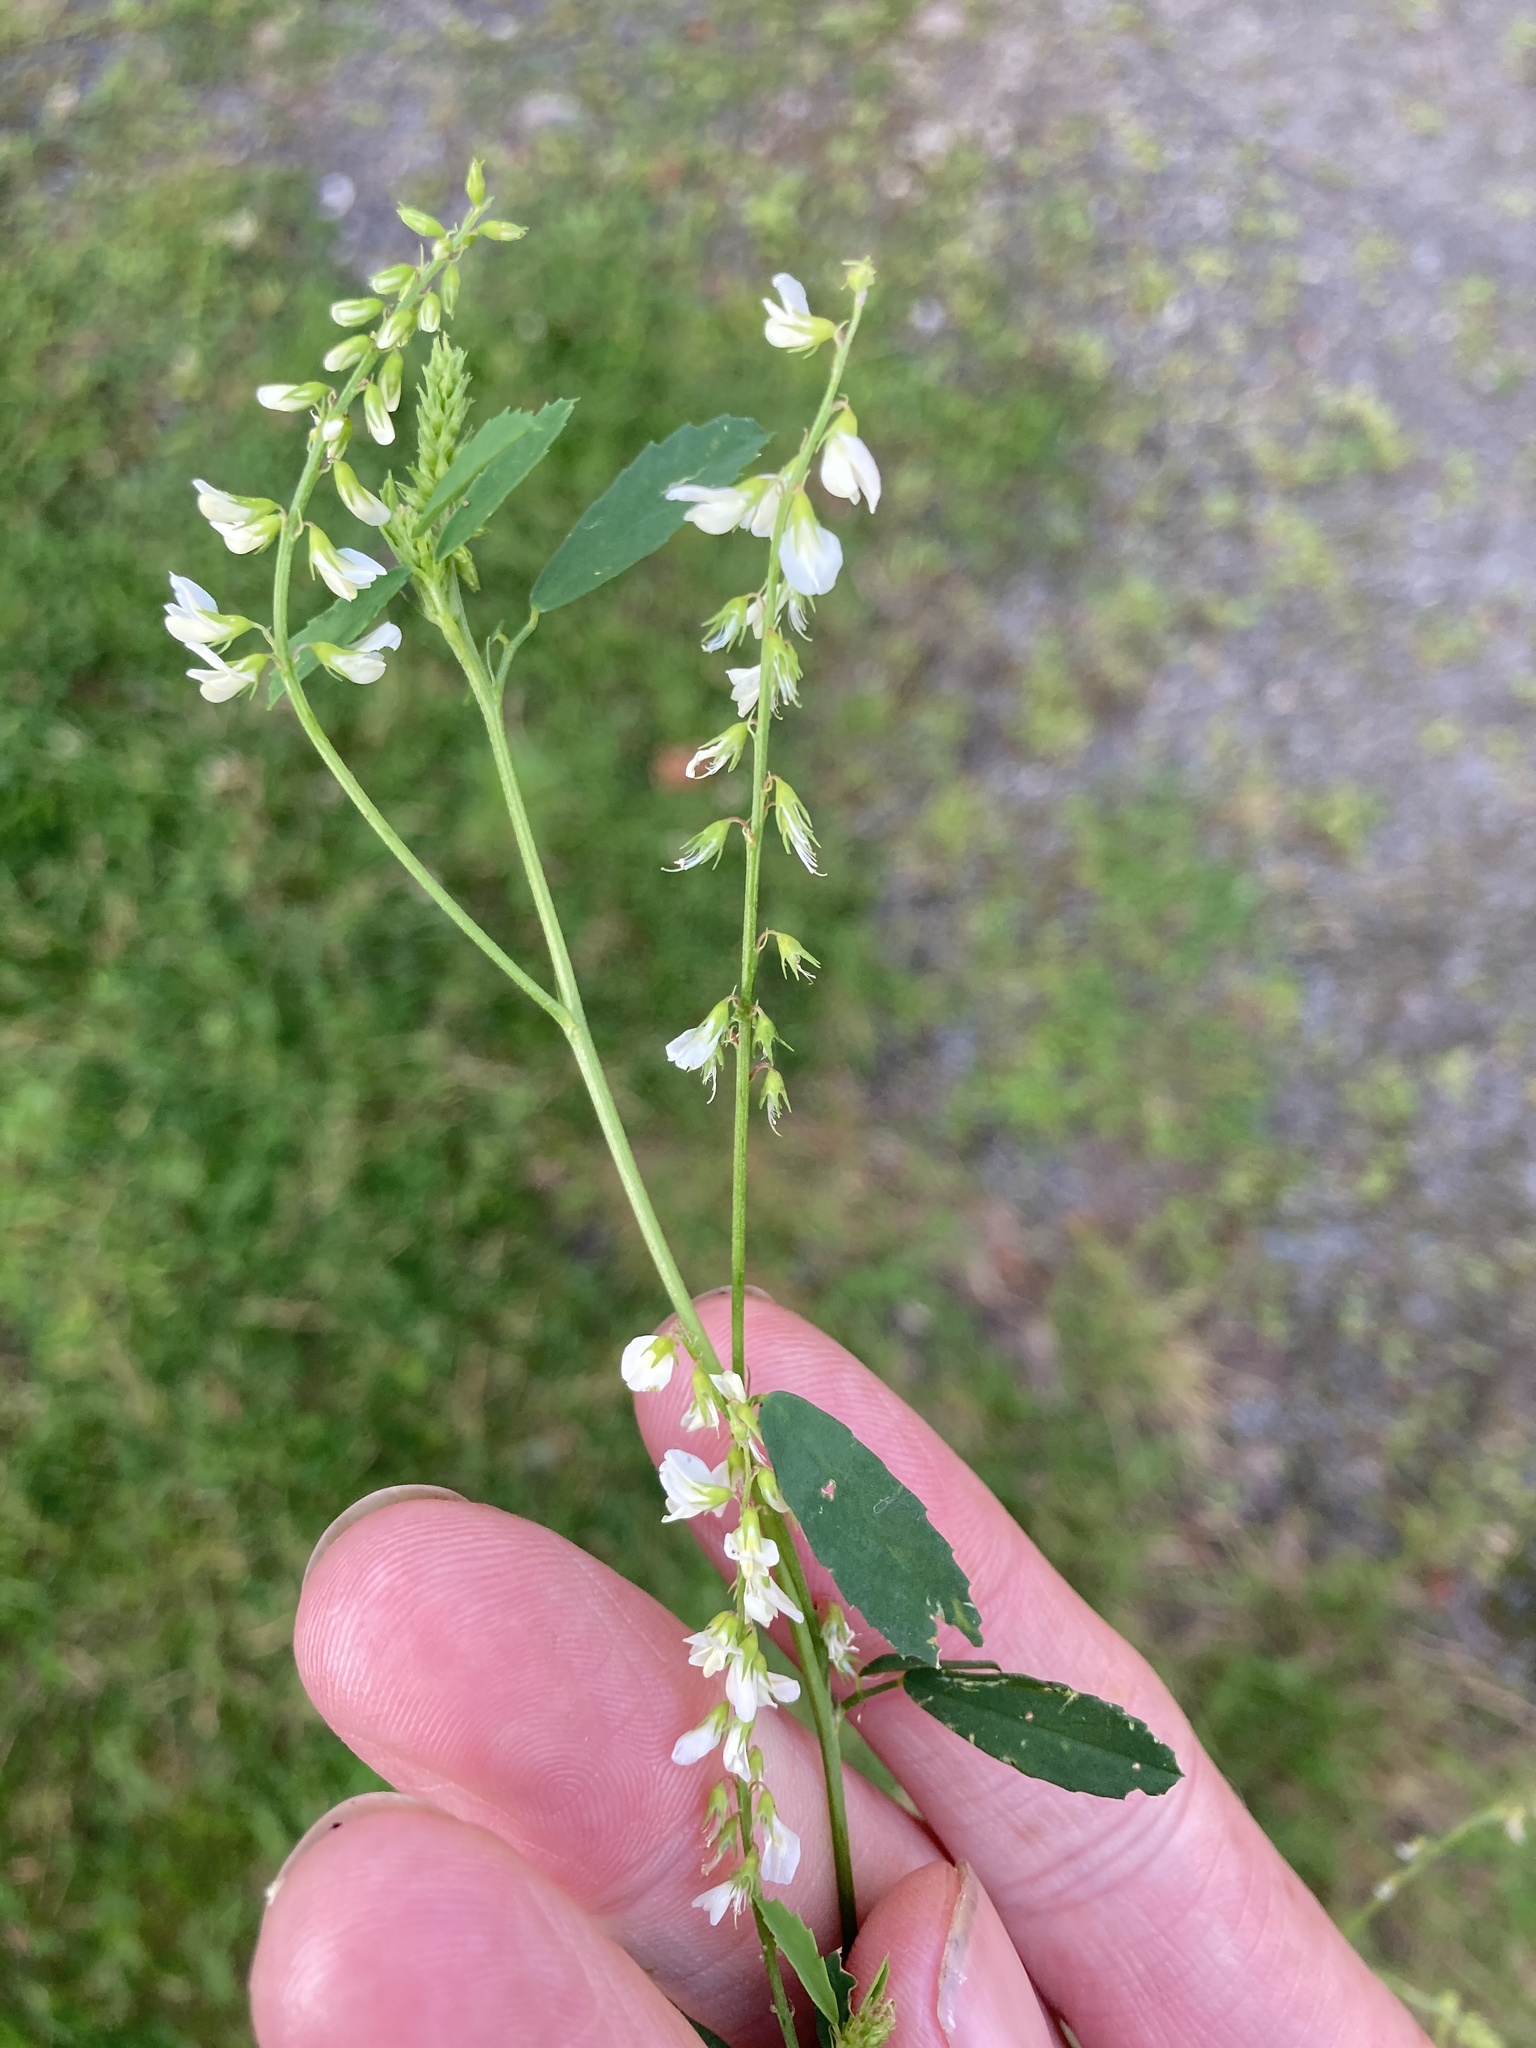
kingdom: Plantae
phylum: Tracheophyta
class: Magnoliopsida
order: Fabales
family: Fabaceae
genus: Melilotus
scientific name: Melilotus albus
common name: White melilot
